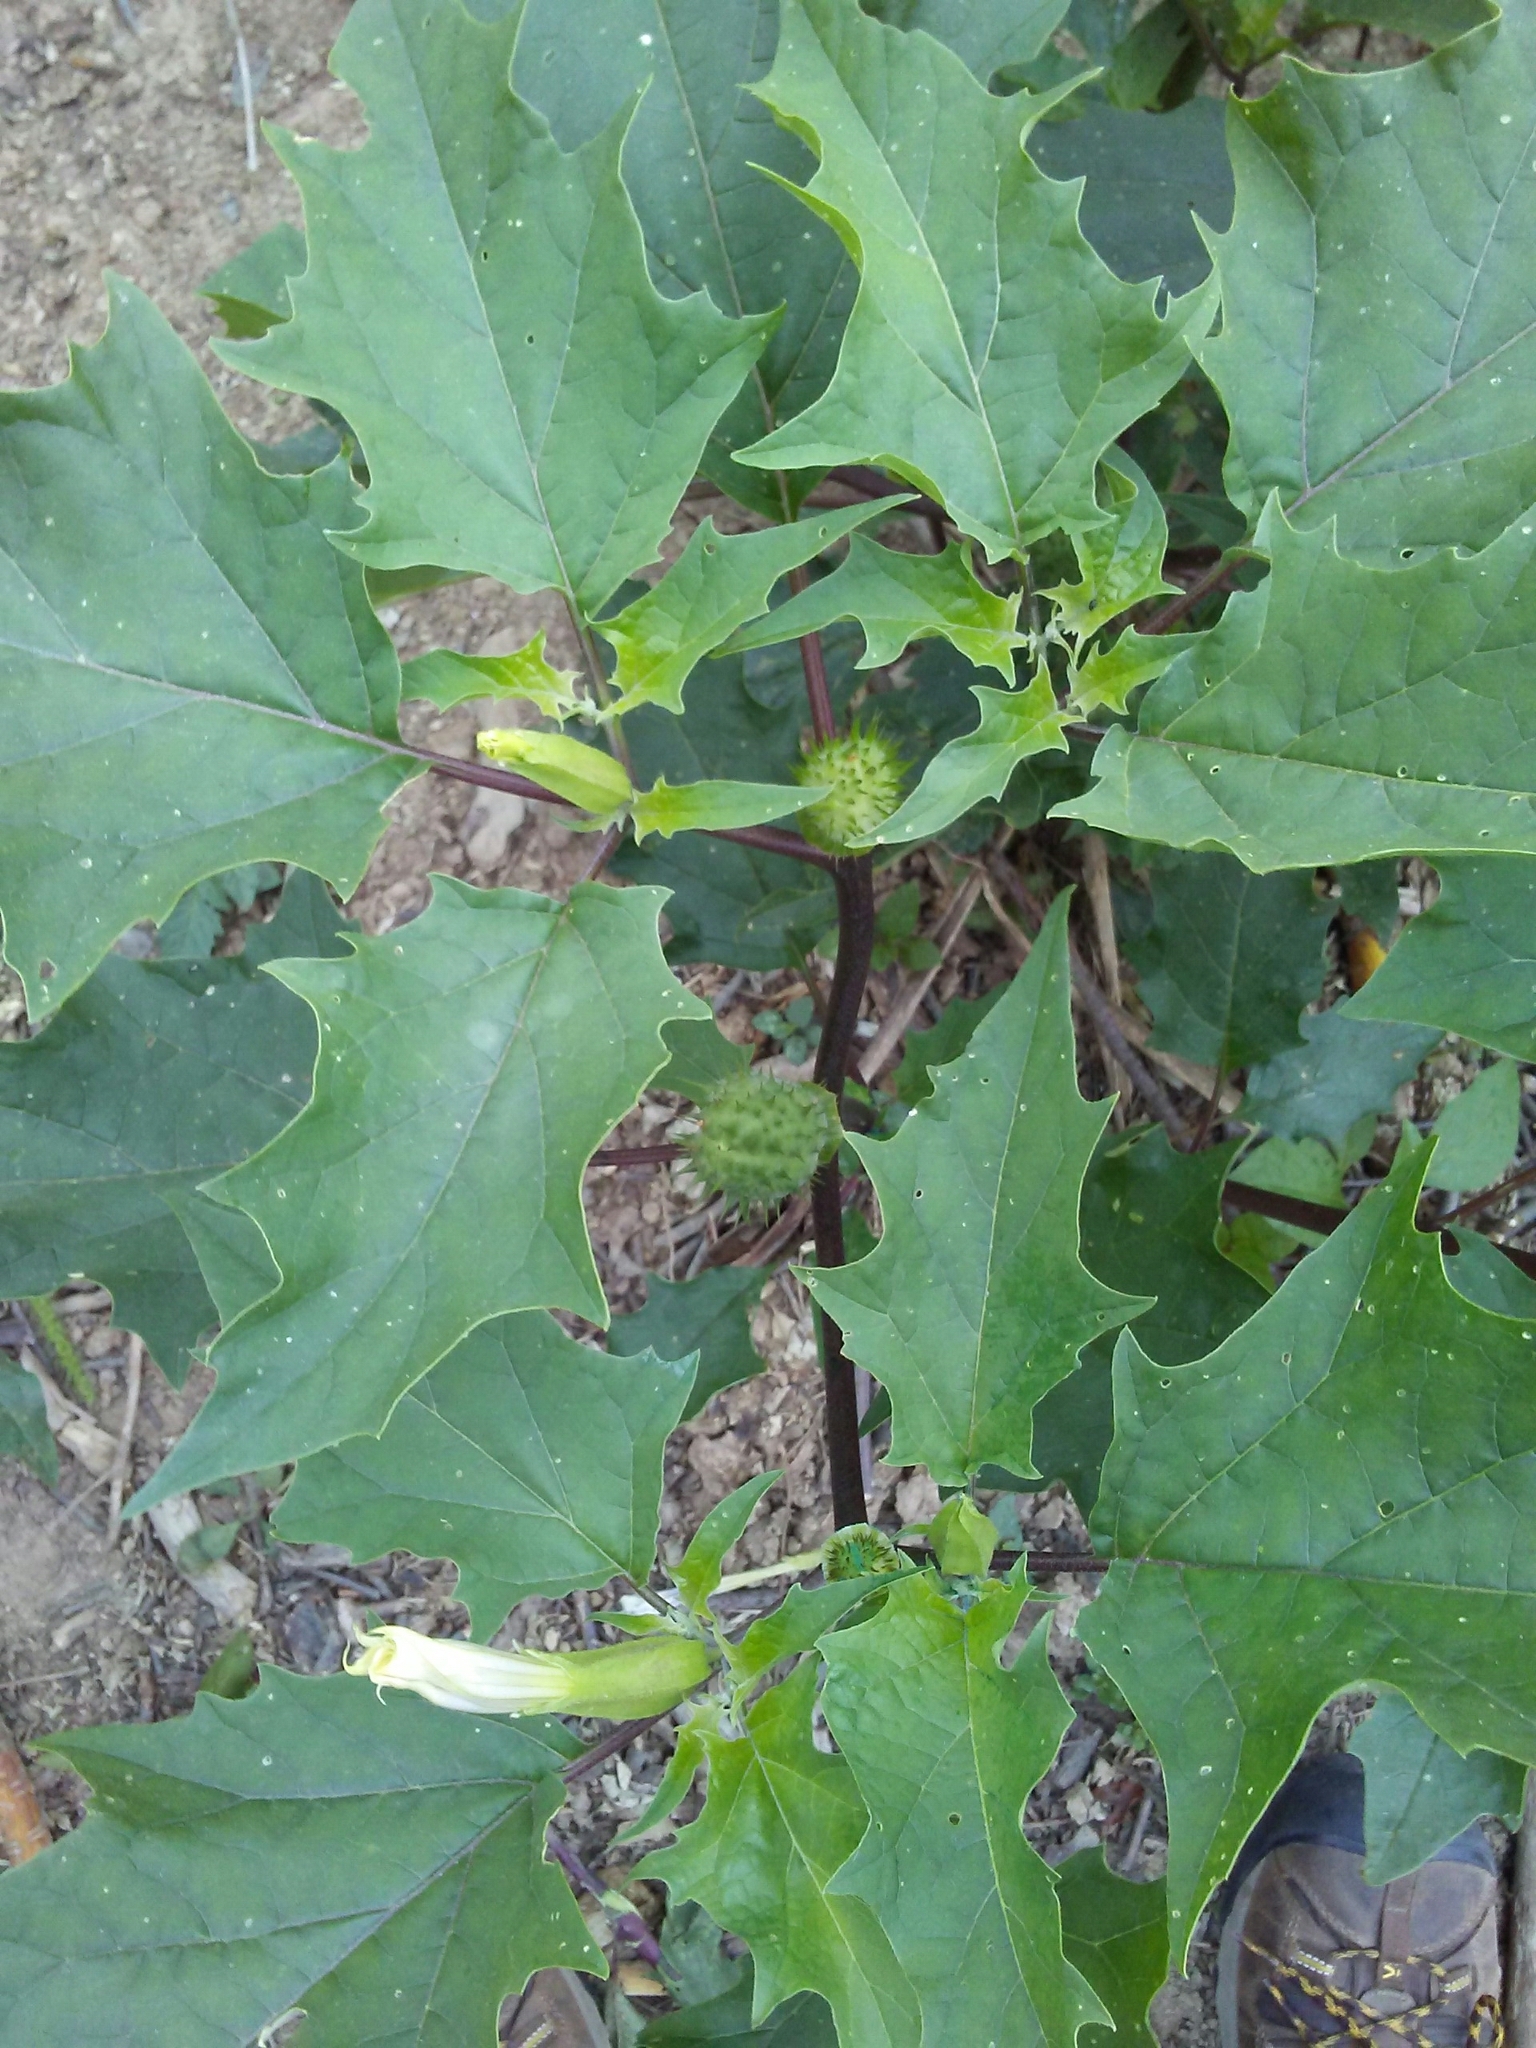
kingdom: Plantae
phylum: Tracheophyta
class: Magnoliopsida
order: Solanales
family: Solanaceae
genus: Datura
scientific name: Datura stramonium
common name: Thorn-apple
